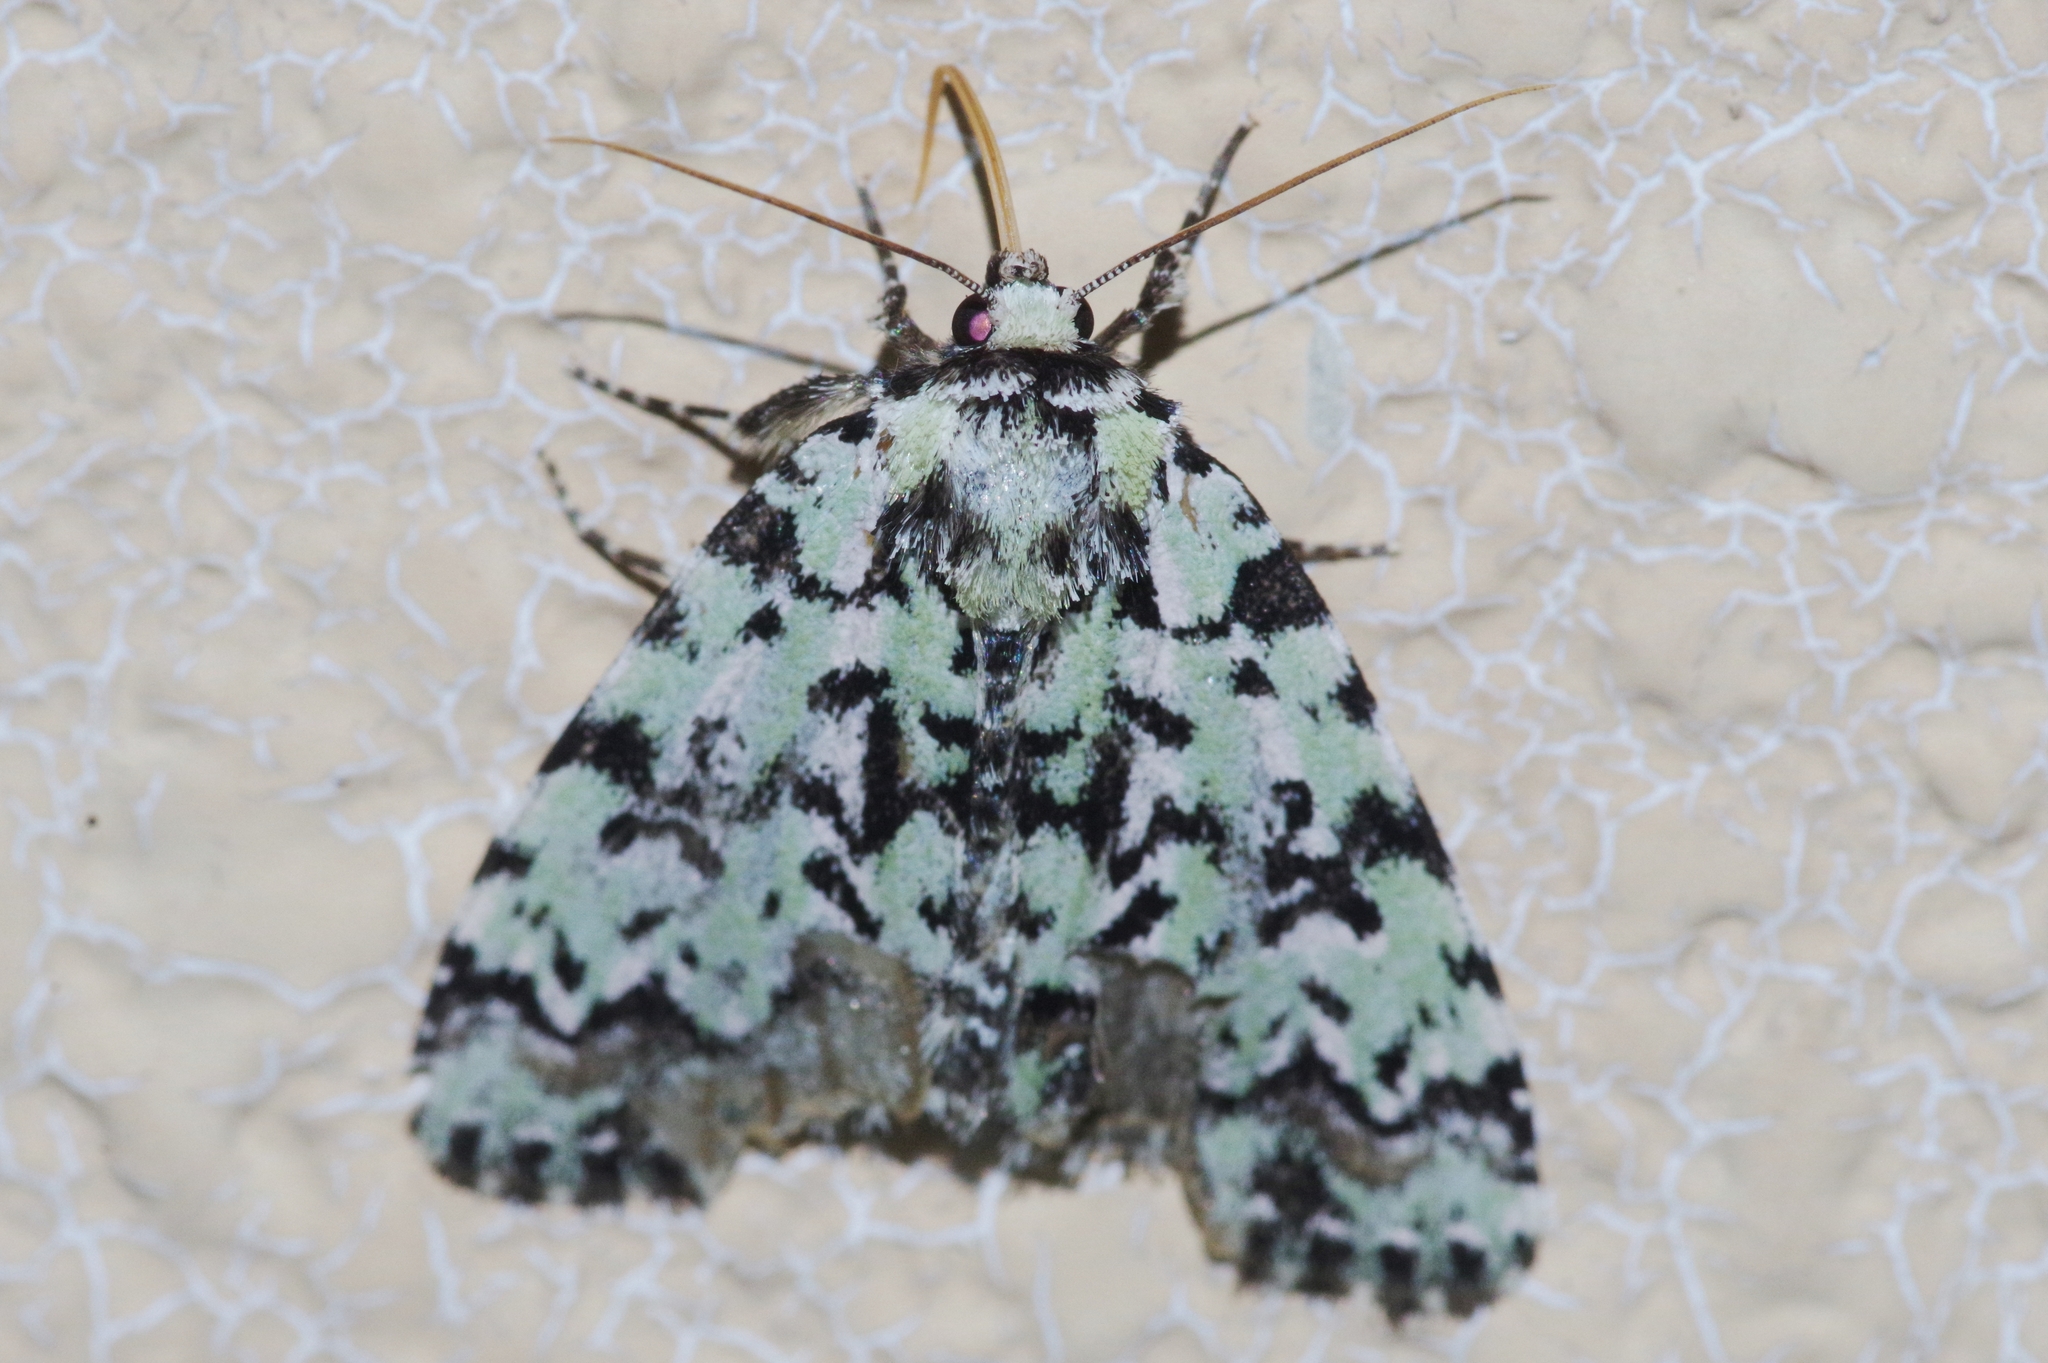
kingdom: Animalia
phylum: Arthropoda
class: Insecta
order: Lepidoptera
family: Noctuidae
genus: Moma
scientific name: Moma alpium
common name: Scarce merveille du jour
